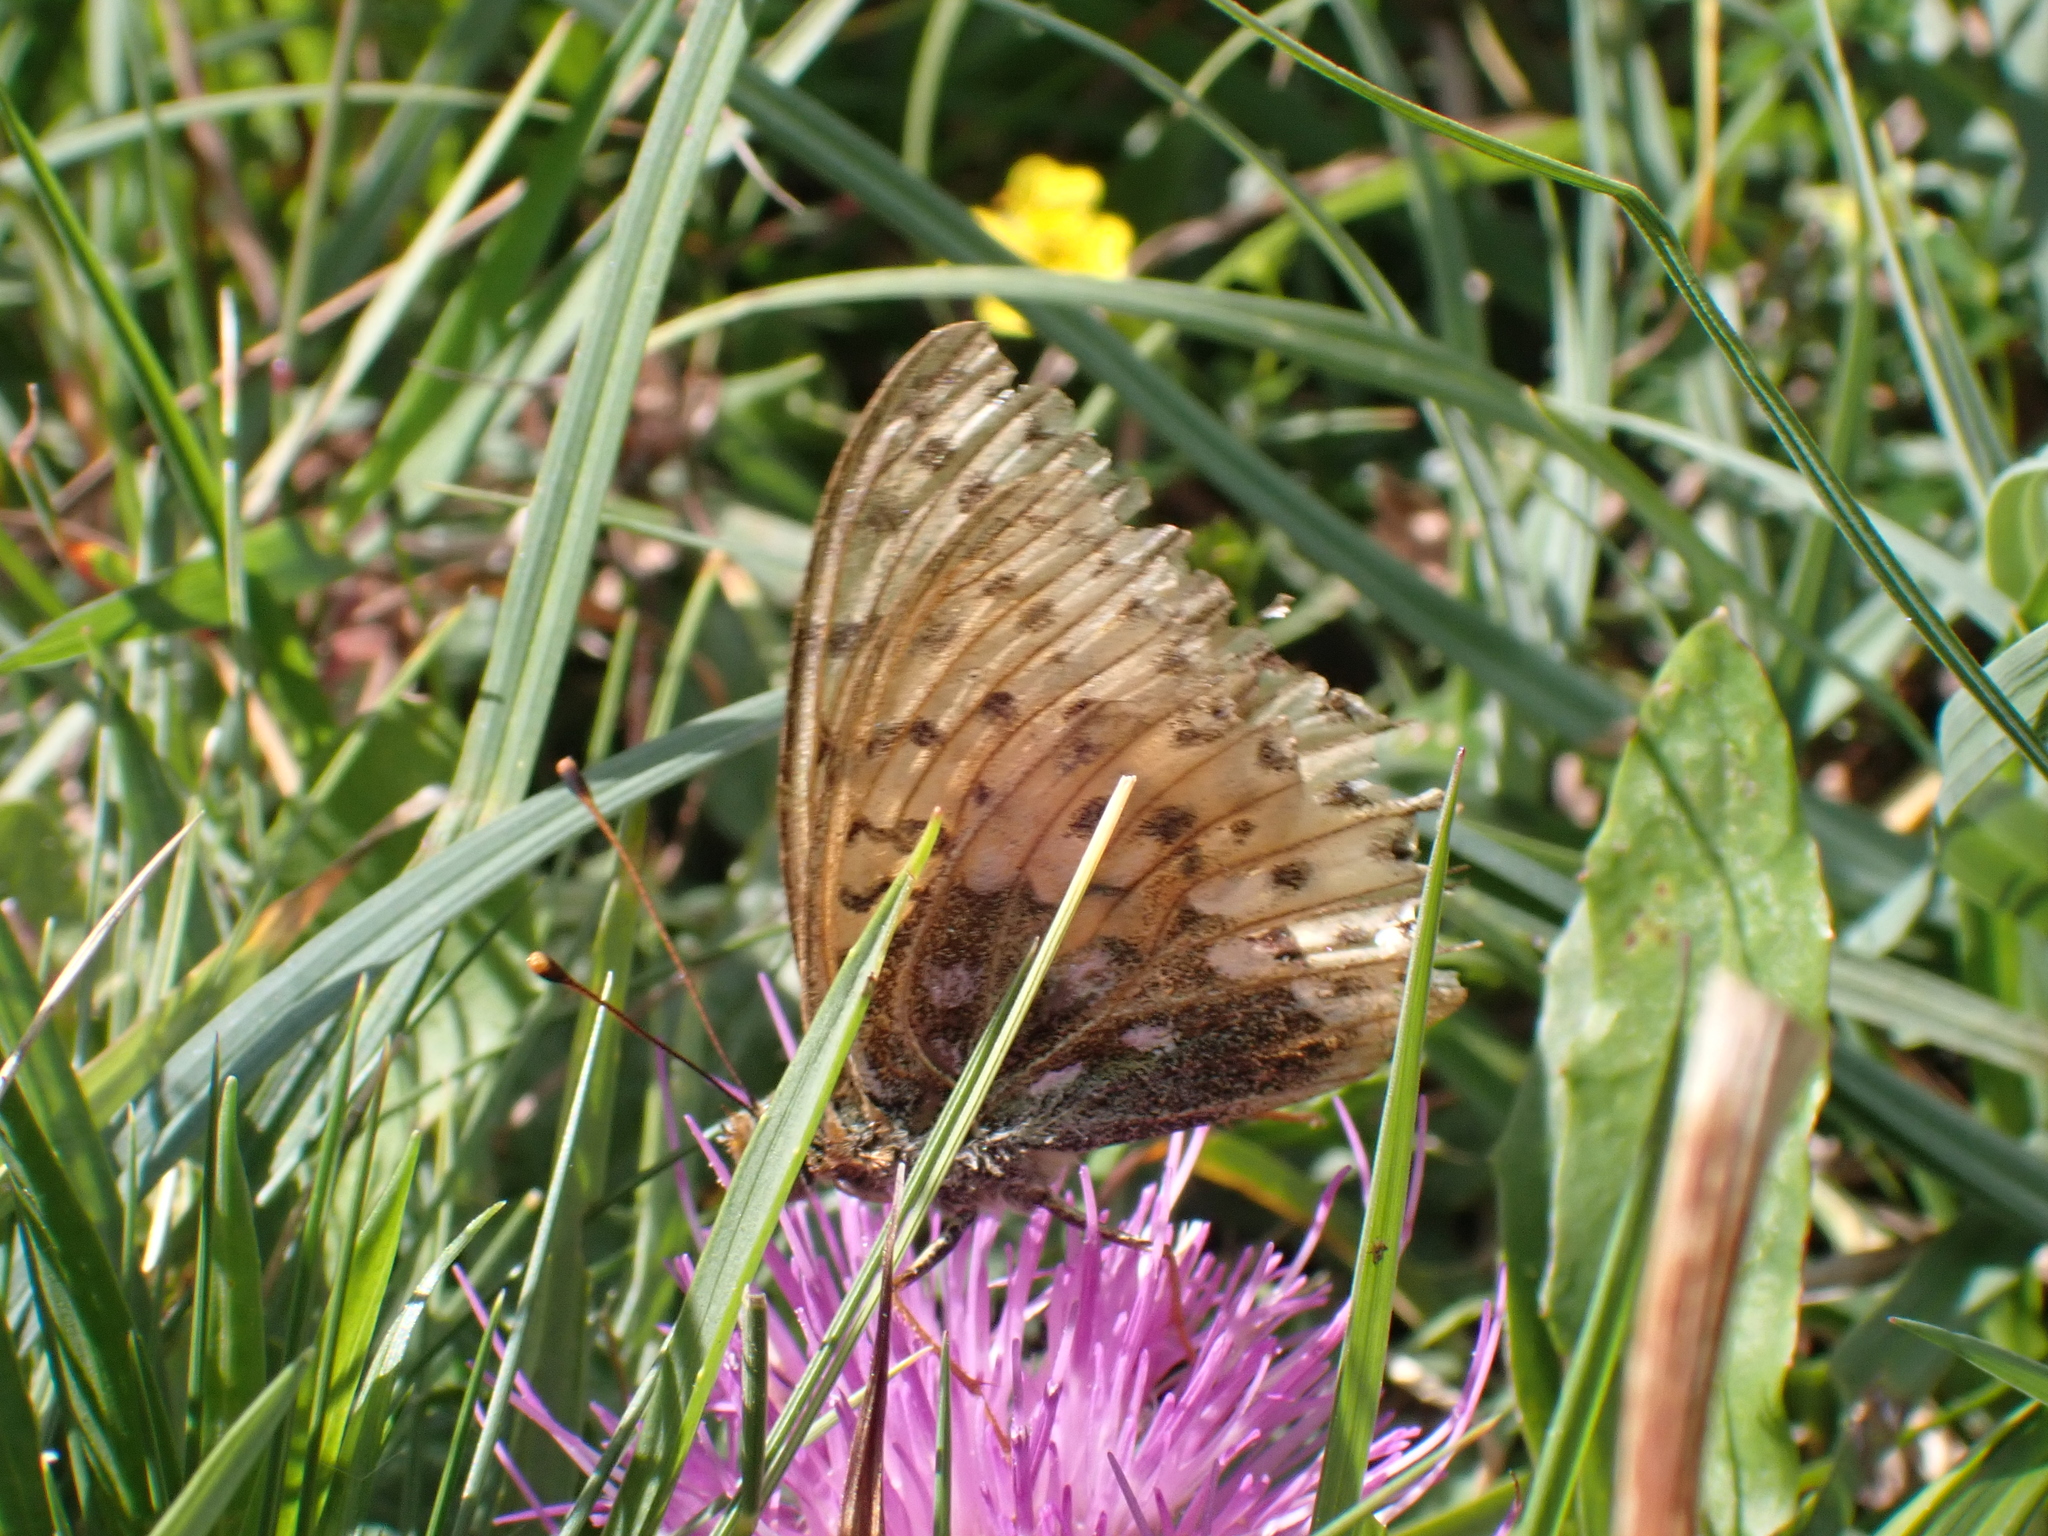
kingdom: Animalia
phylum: Arthropoda
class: Insecta
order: Lepidoptera
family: Nymphalidae
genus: Speyeria
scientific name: Speyeria aglaja
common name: Dark green fritillary
